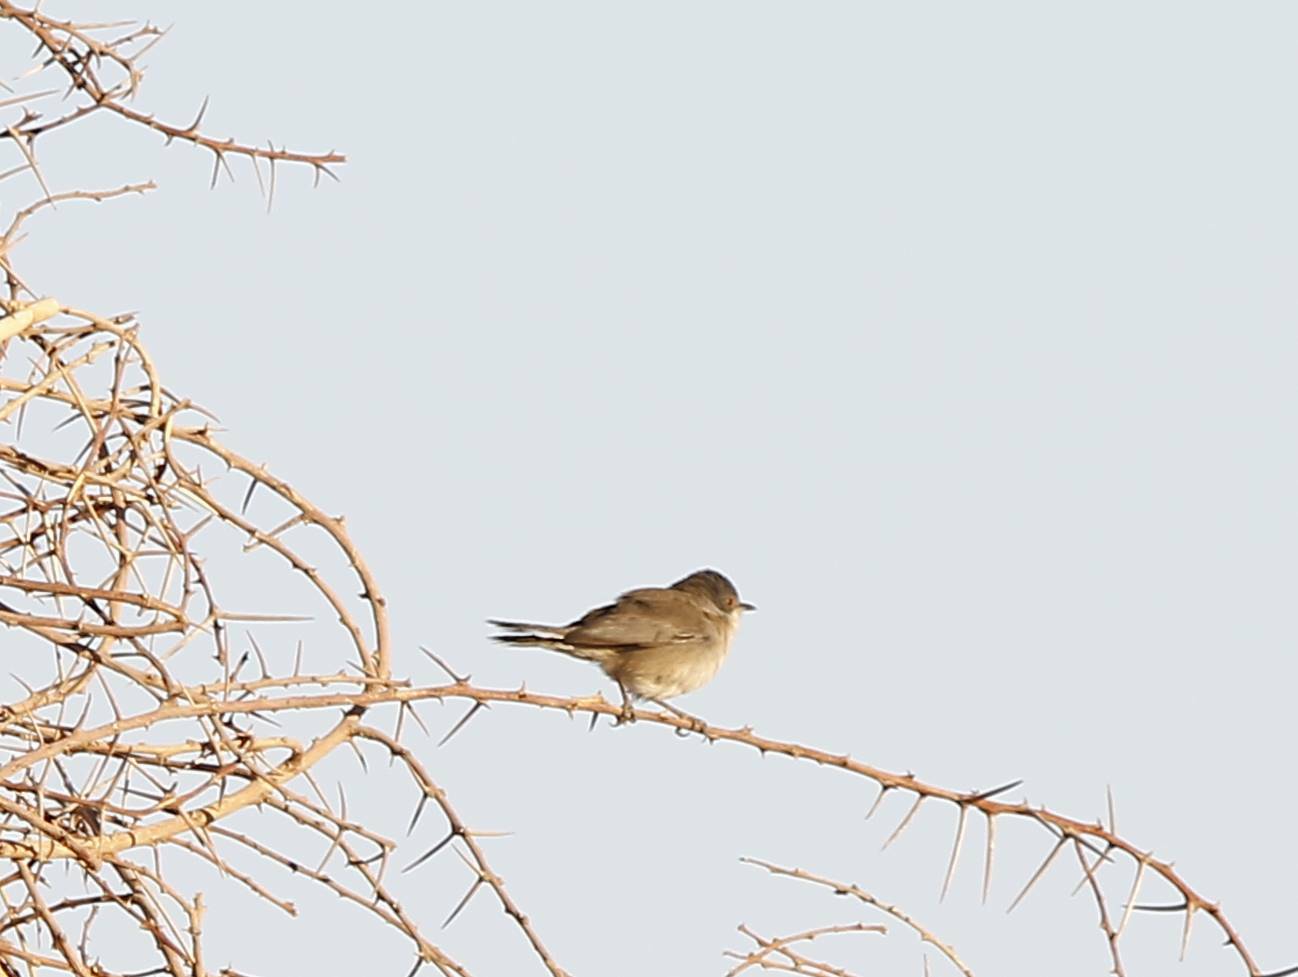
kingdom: Animalia
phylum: Chordata
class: Aves
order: Passeriformes
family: Sylviidae
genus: Curruca
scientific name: Curruca melanocephala
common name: Sardinian warbler
